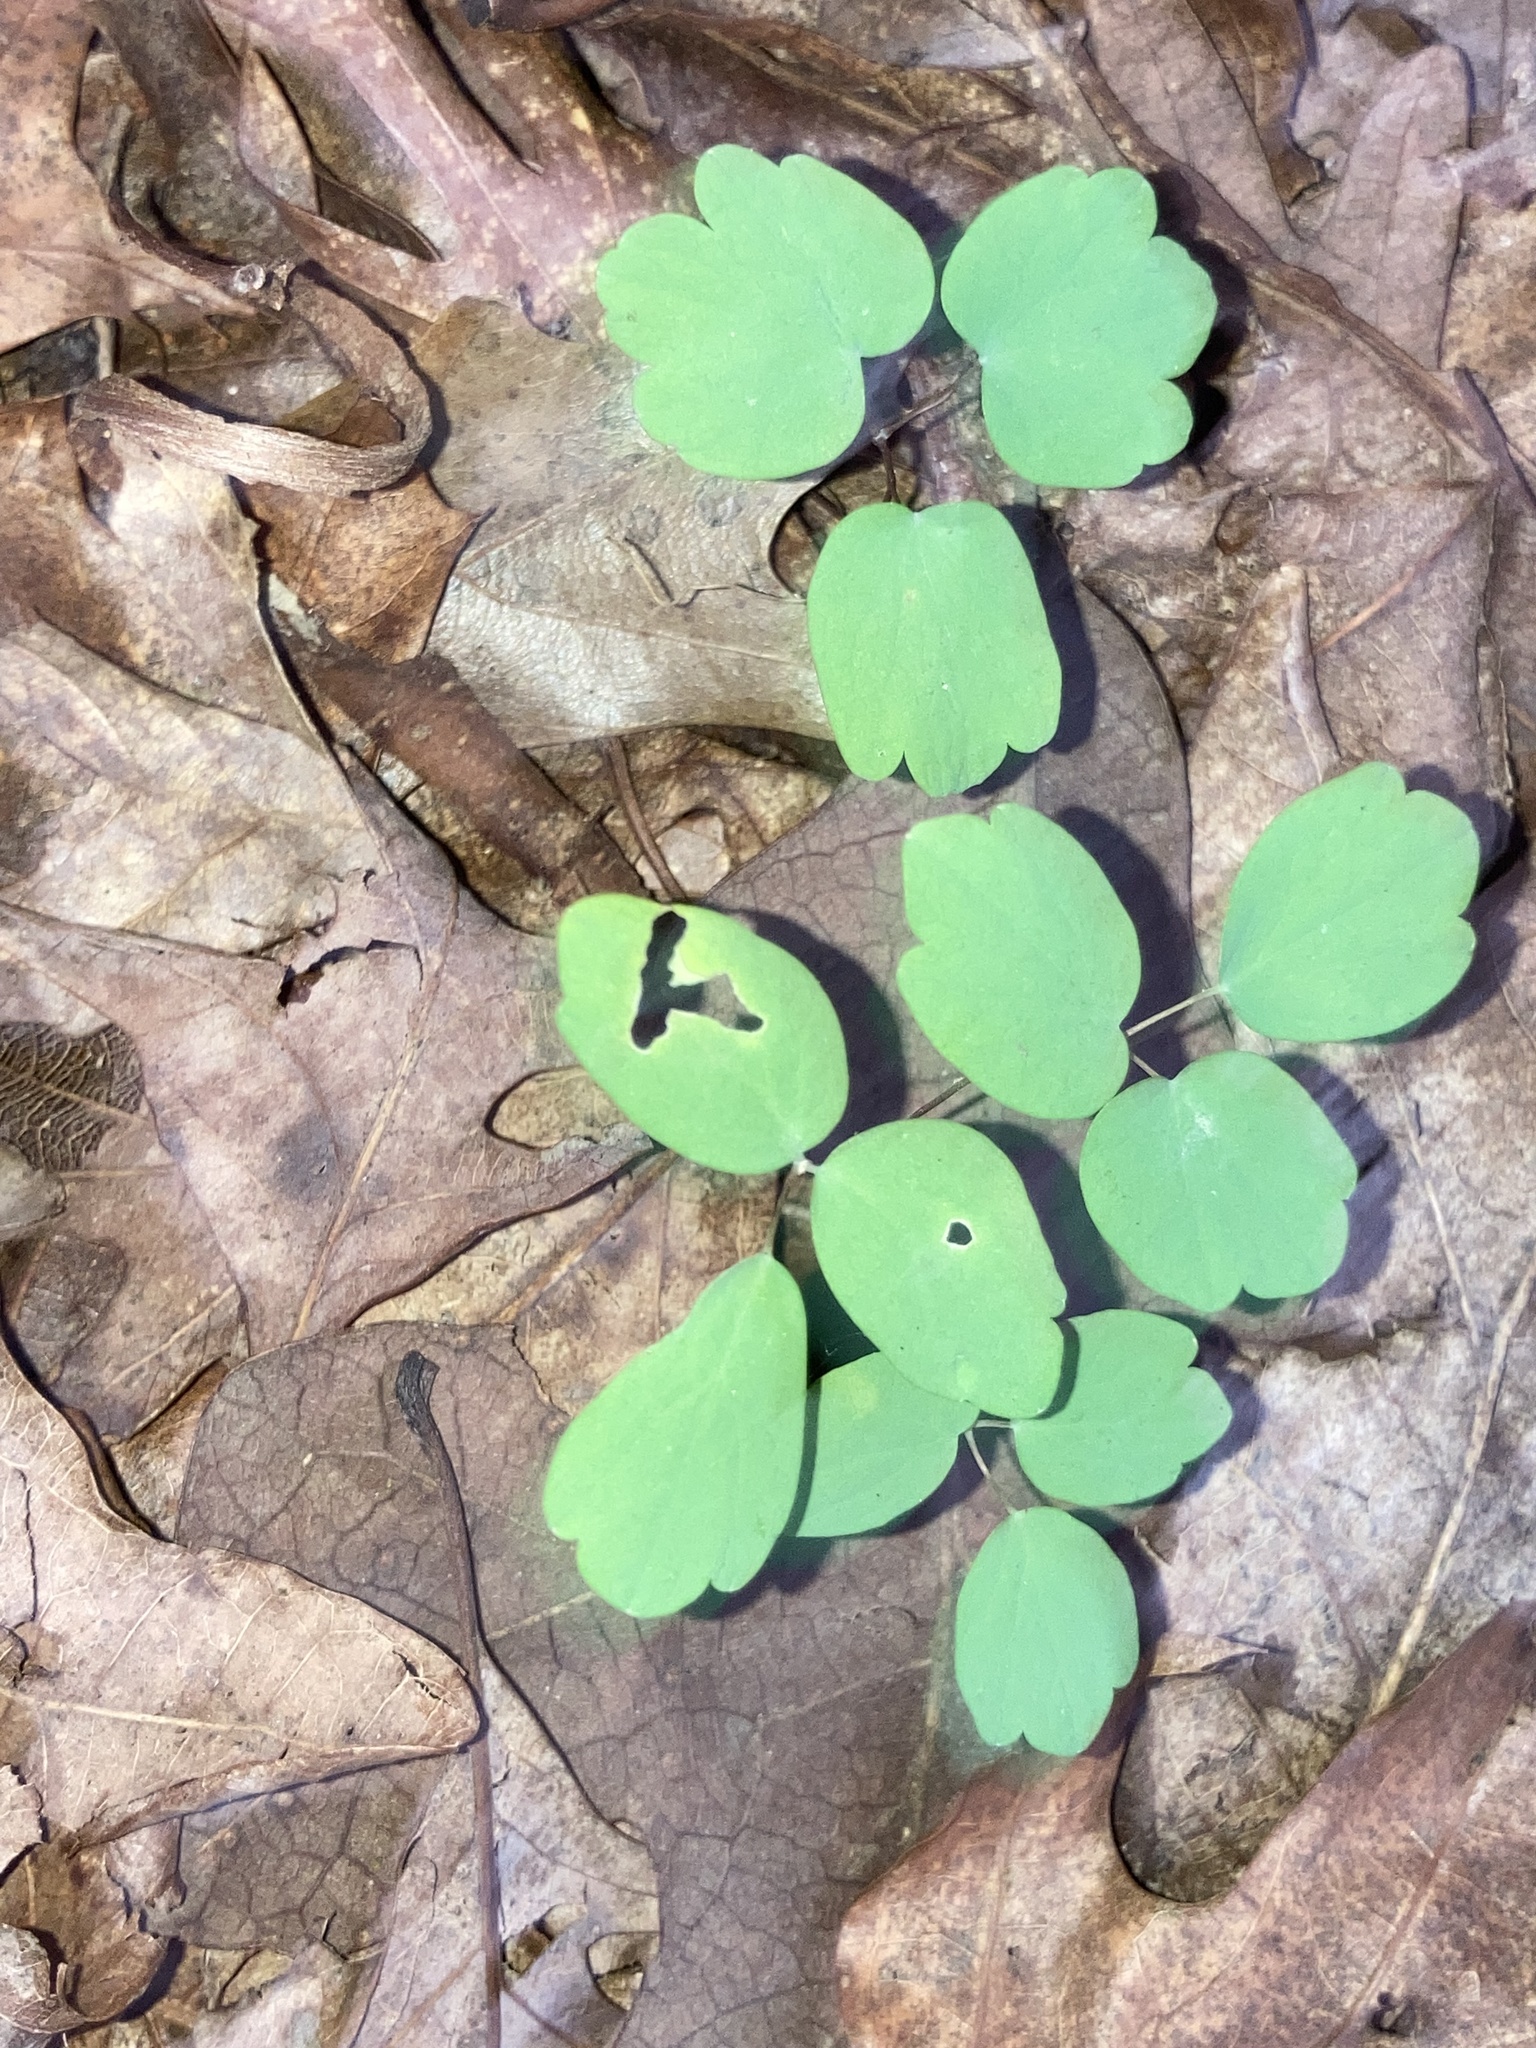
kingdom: Plantae
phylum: Tracheophyta
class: Magnoliopsida
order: Ranunculales
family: Ranunculaceae
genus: Thalictrum
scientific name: Thalictrum thalictroides
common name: Rue-anemone
